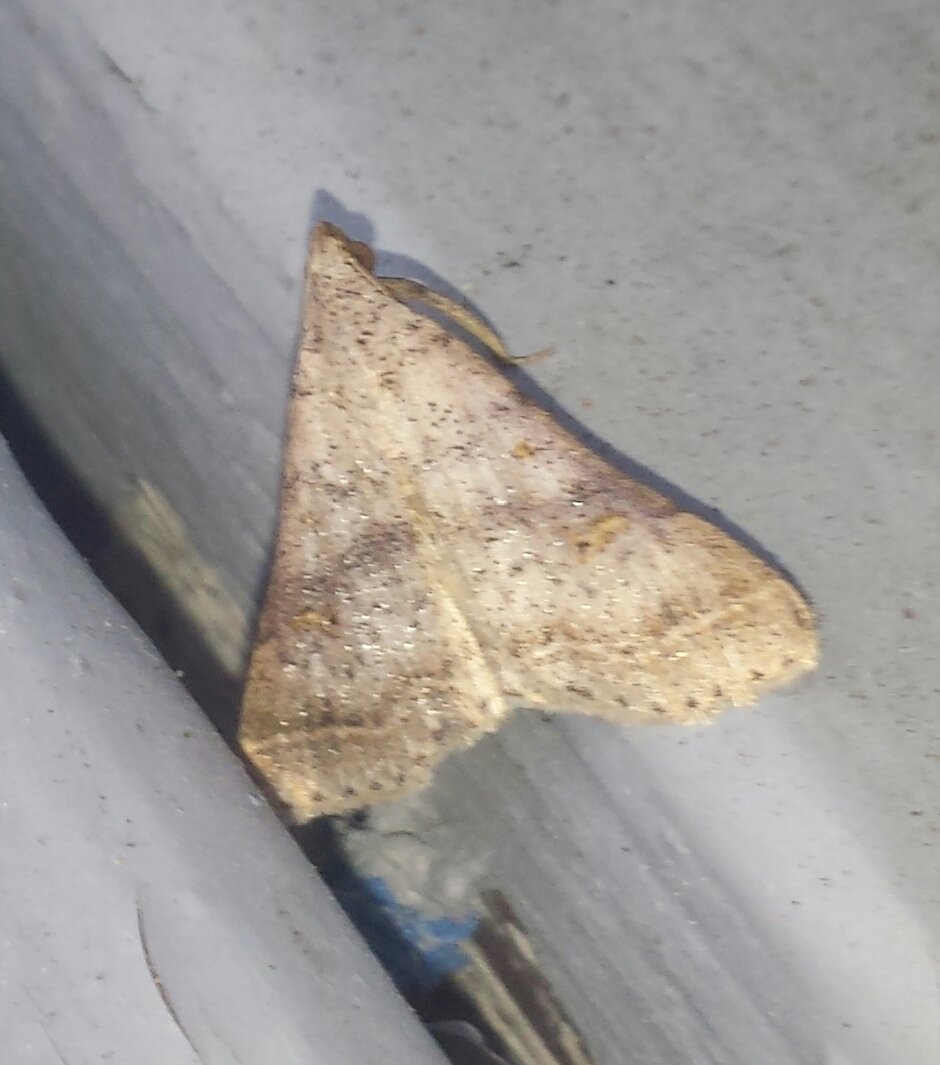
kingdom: Animalia
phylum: Arthropoda
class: Insecta
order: Lepidoptera
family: Erebidae
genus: Bleptina
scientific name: Bleptina caradrinalis
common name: Bent-winged owlet
